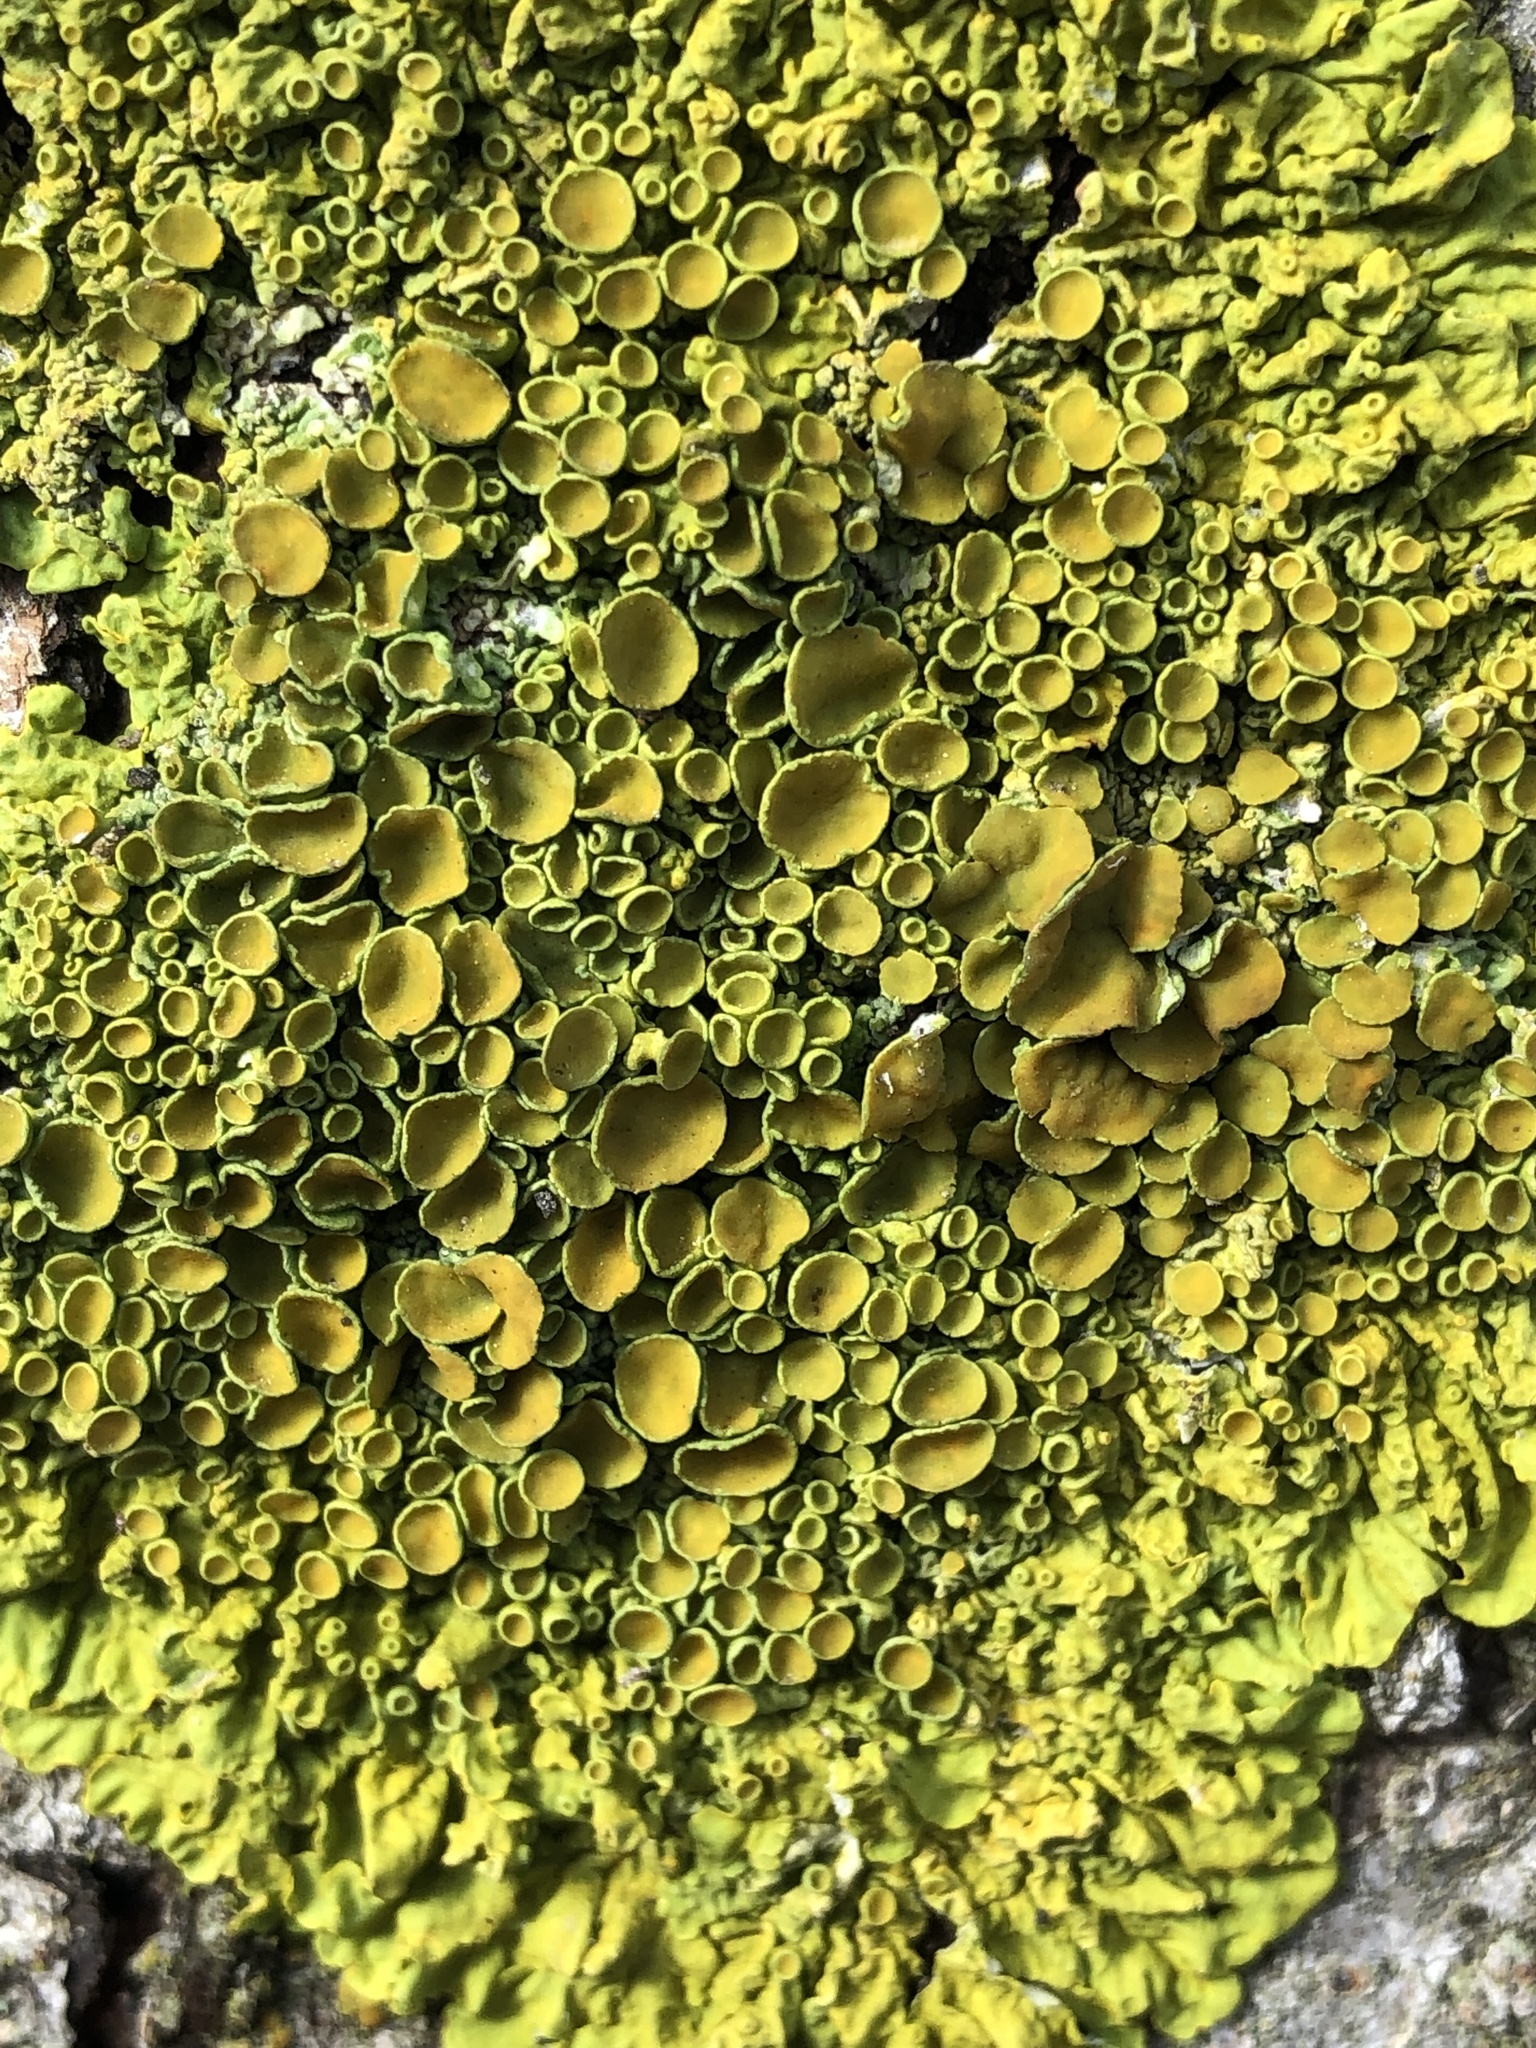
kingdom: Fungi
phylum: Ascomycota
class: Lecanoromycetes
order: Teloschistales
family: Teloschistaceae
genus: Xanthoria
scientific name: Xanthoria parietina
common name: Common orange lichen
